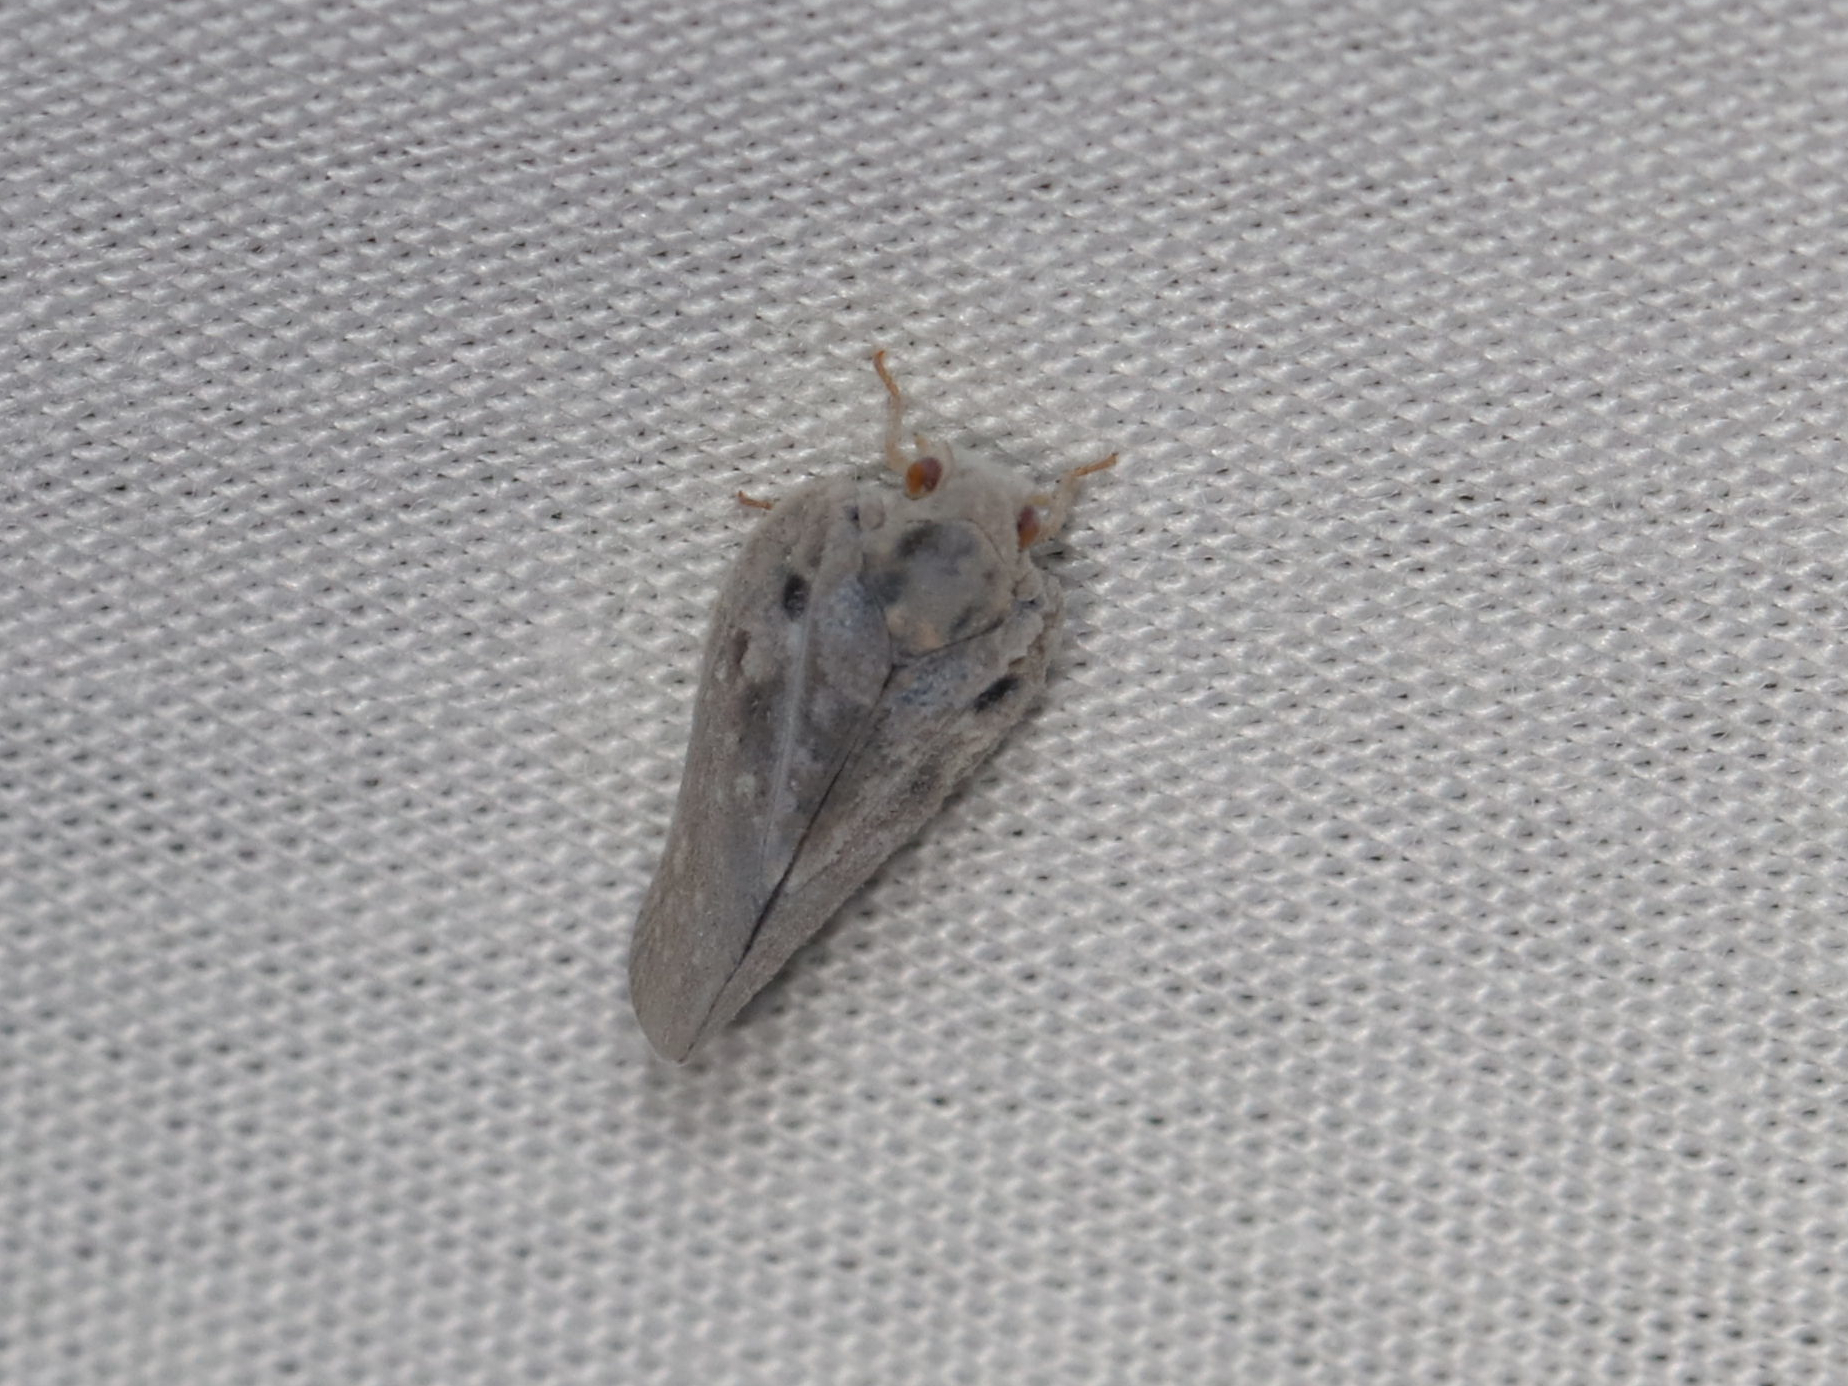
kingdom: Animalia
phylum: Arthropoda
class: Insecta
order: Hemiptera
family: Flatidae
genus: Metcalfa
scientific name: Metcalfa pruinosa
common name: Citrus flatid planthopper
